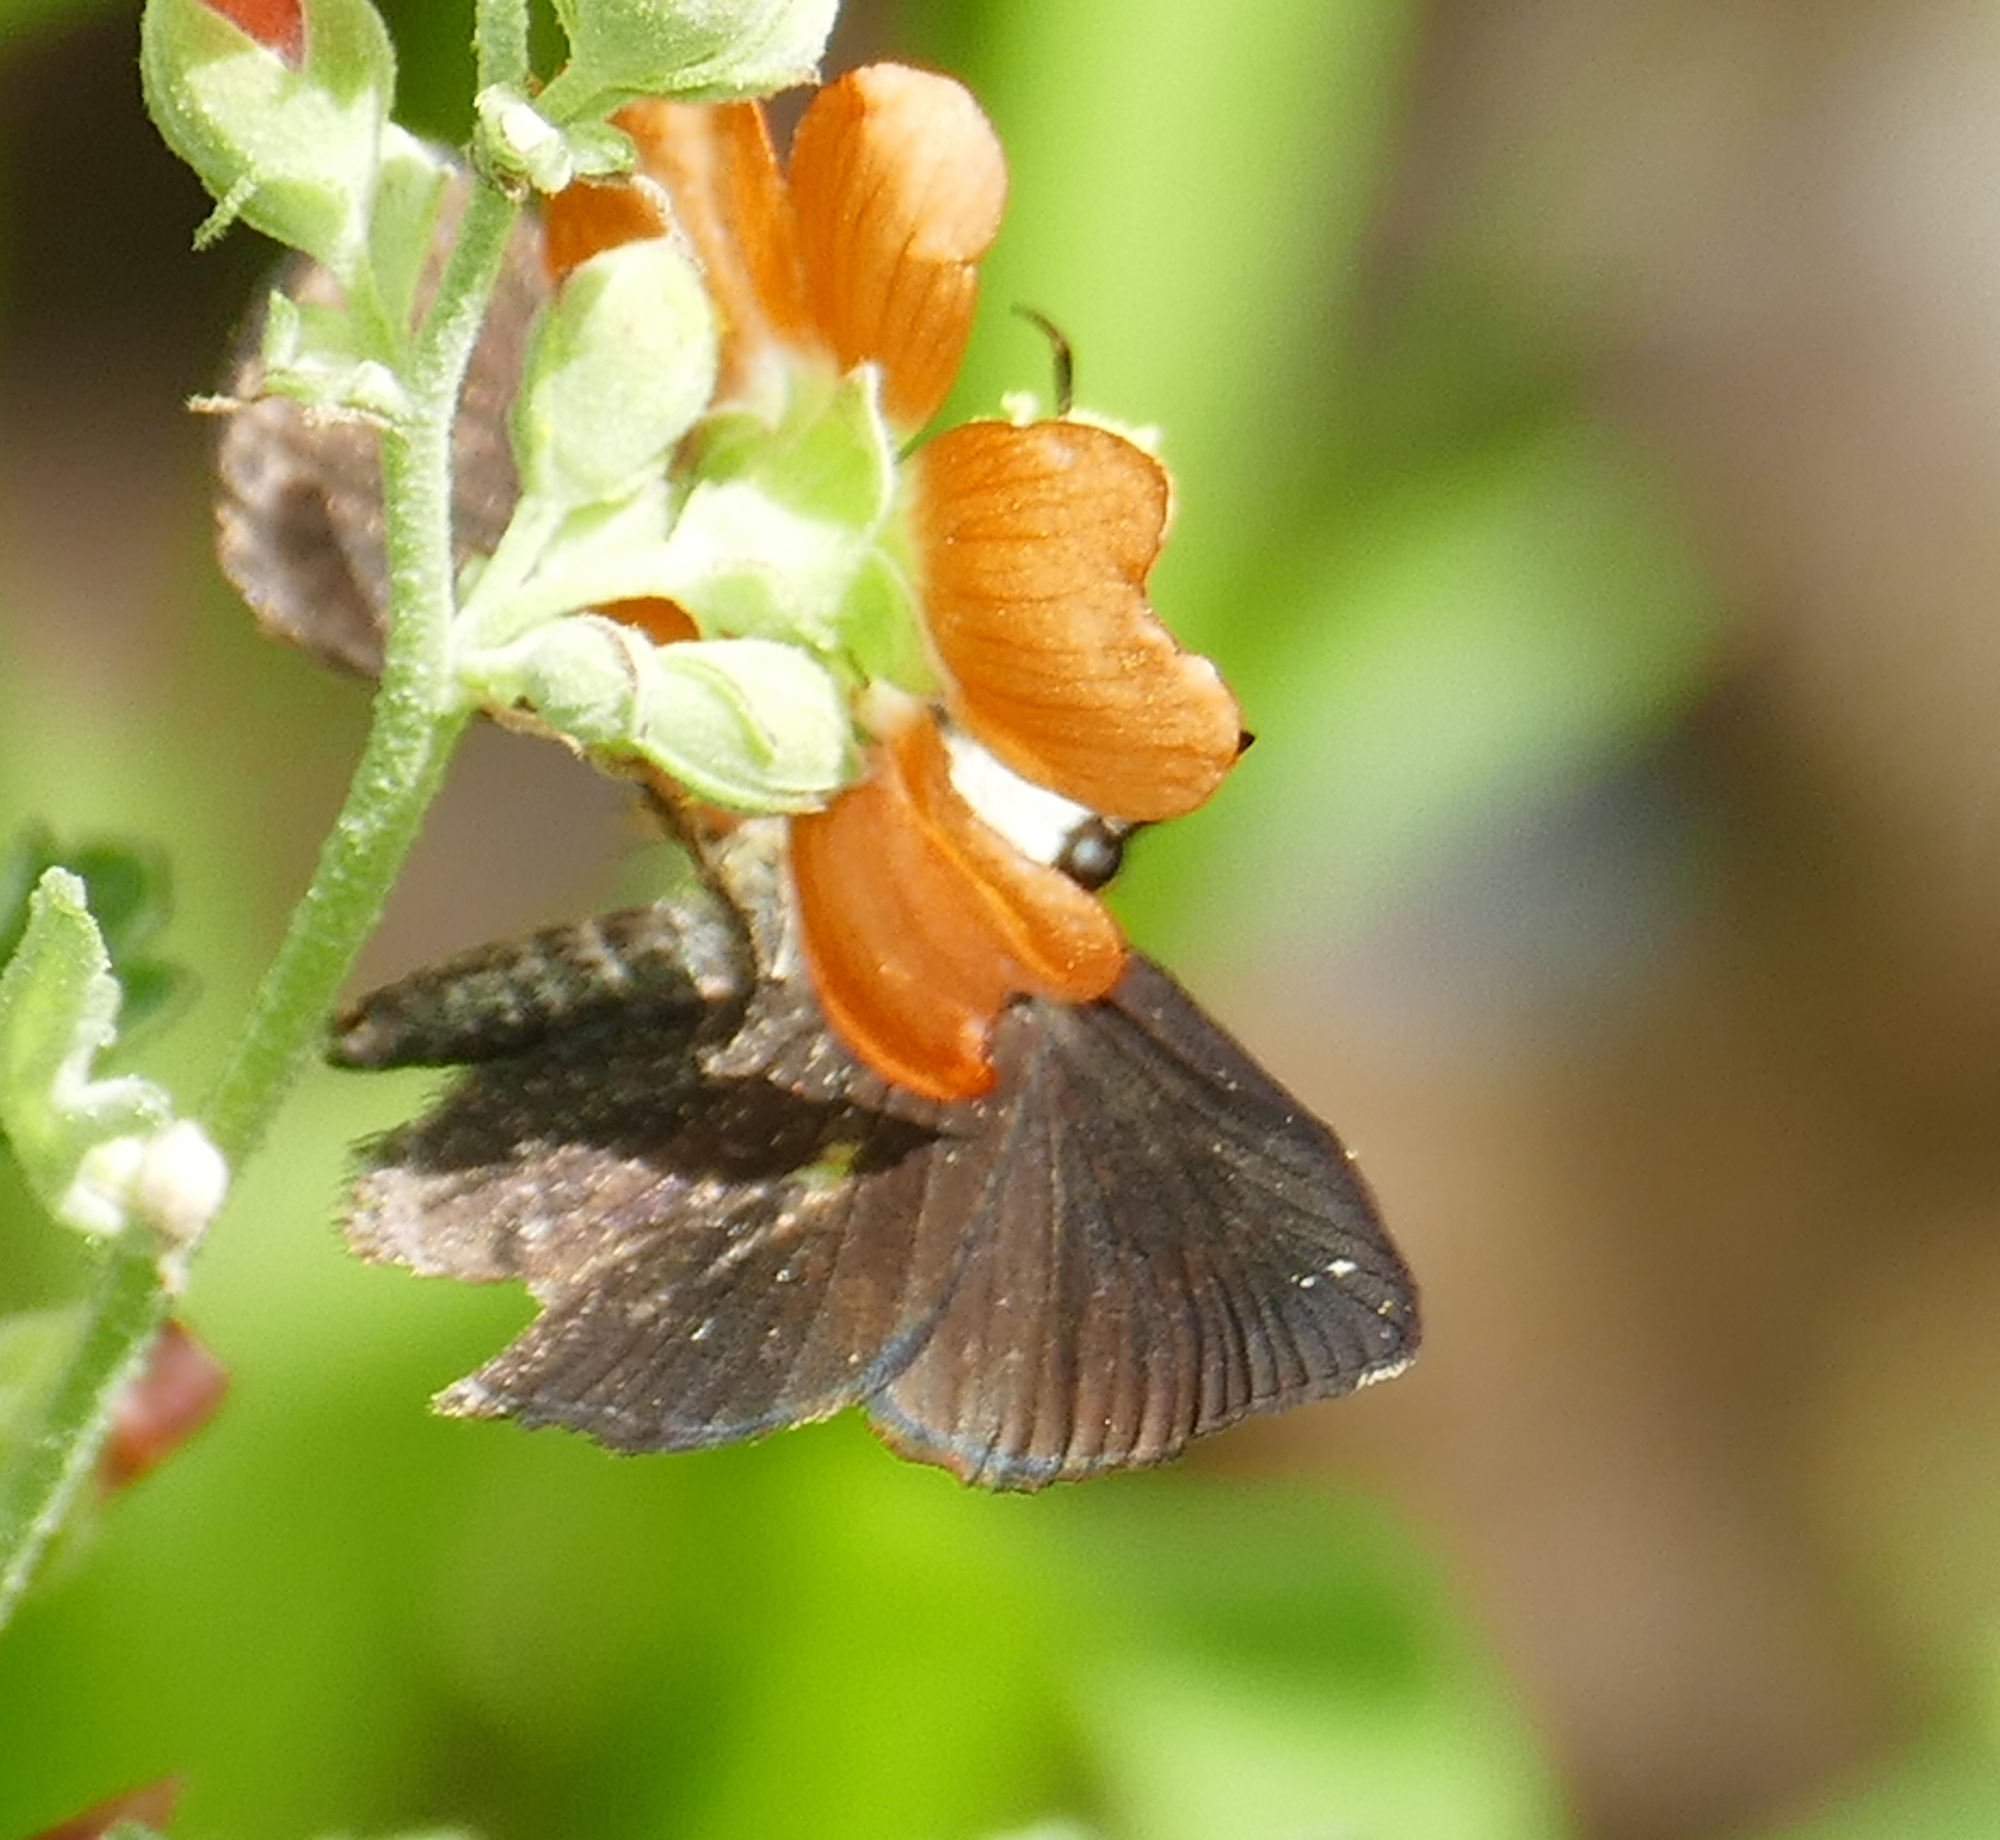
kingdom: Animalia
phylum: Arthropoda
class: Insecta
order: Lepidoptera
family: Hesperiidae
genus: Staphylus
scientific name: Staphylus ceos
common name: Golden-headed scallopwing
